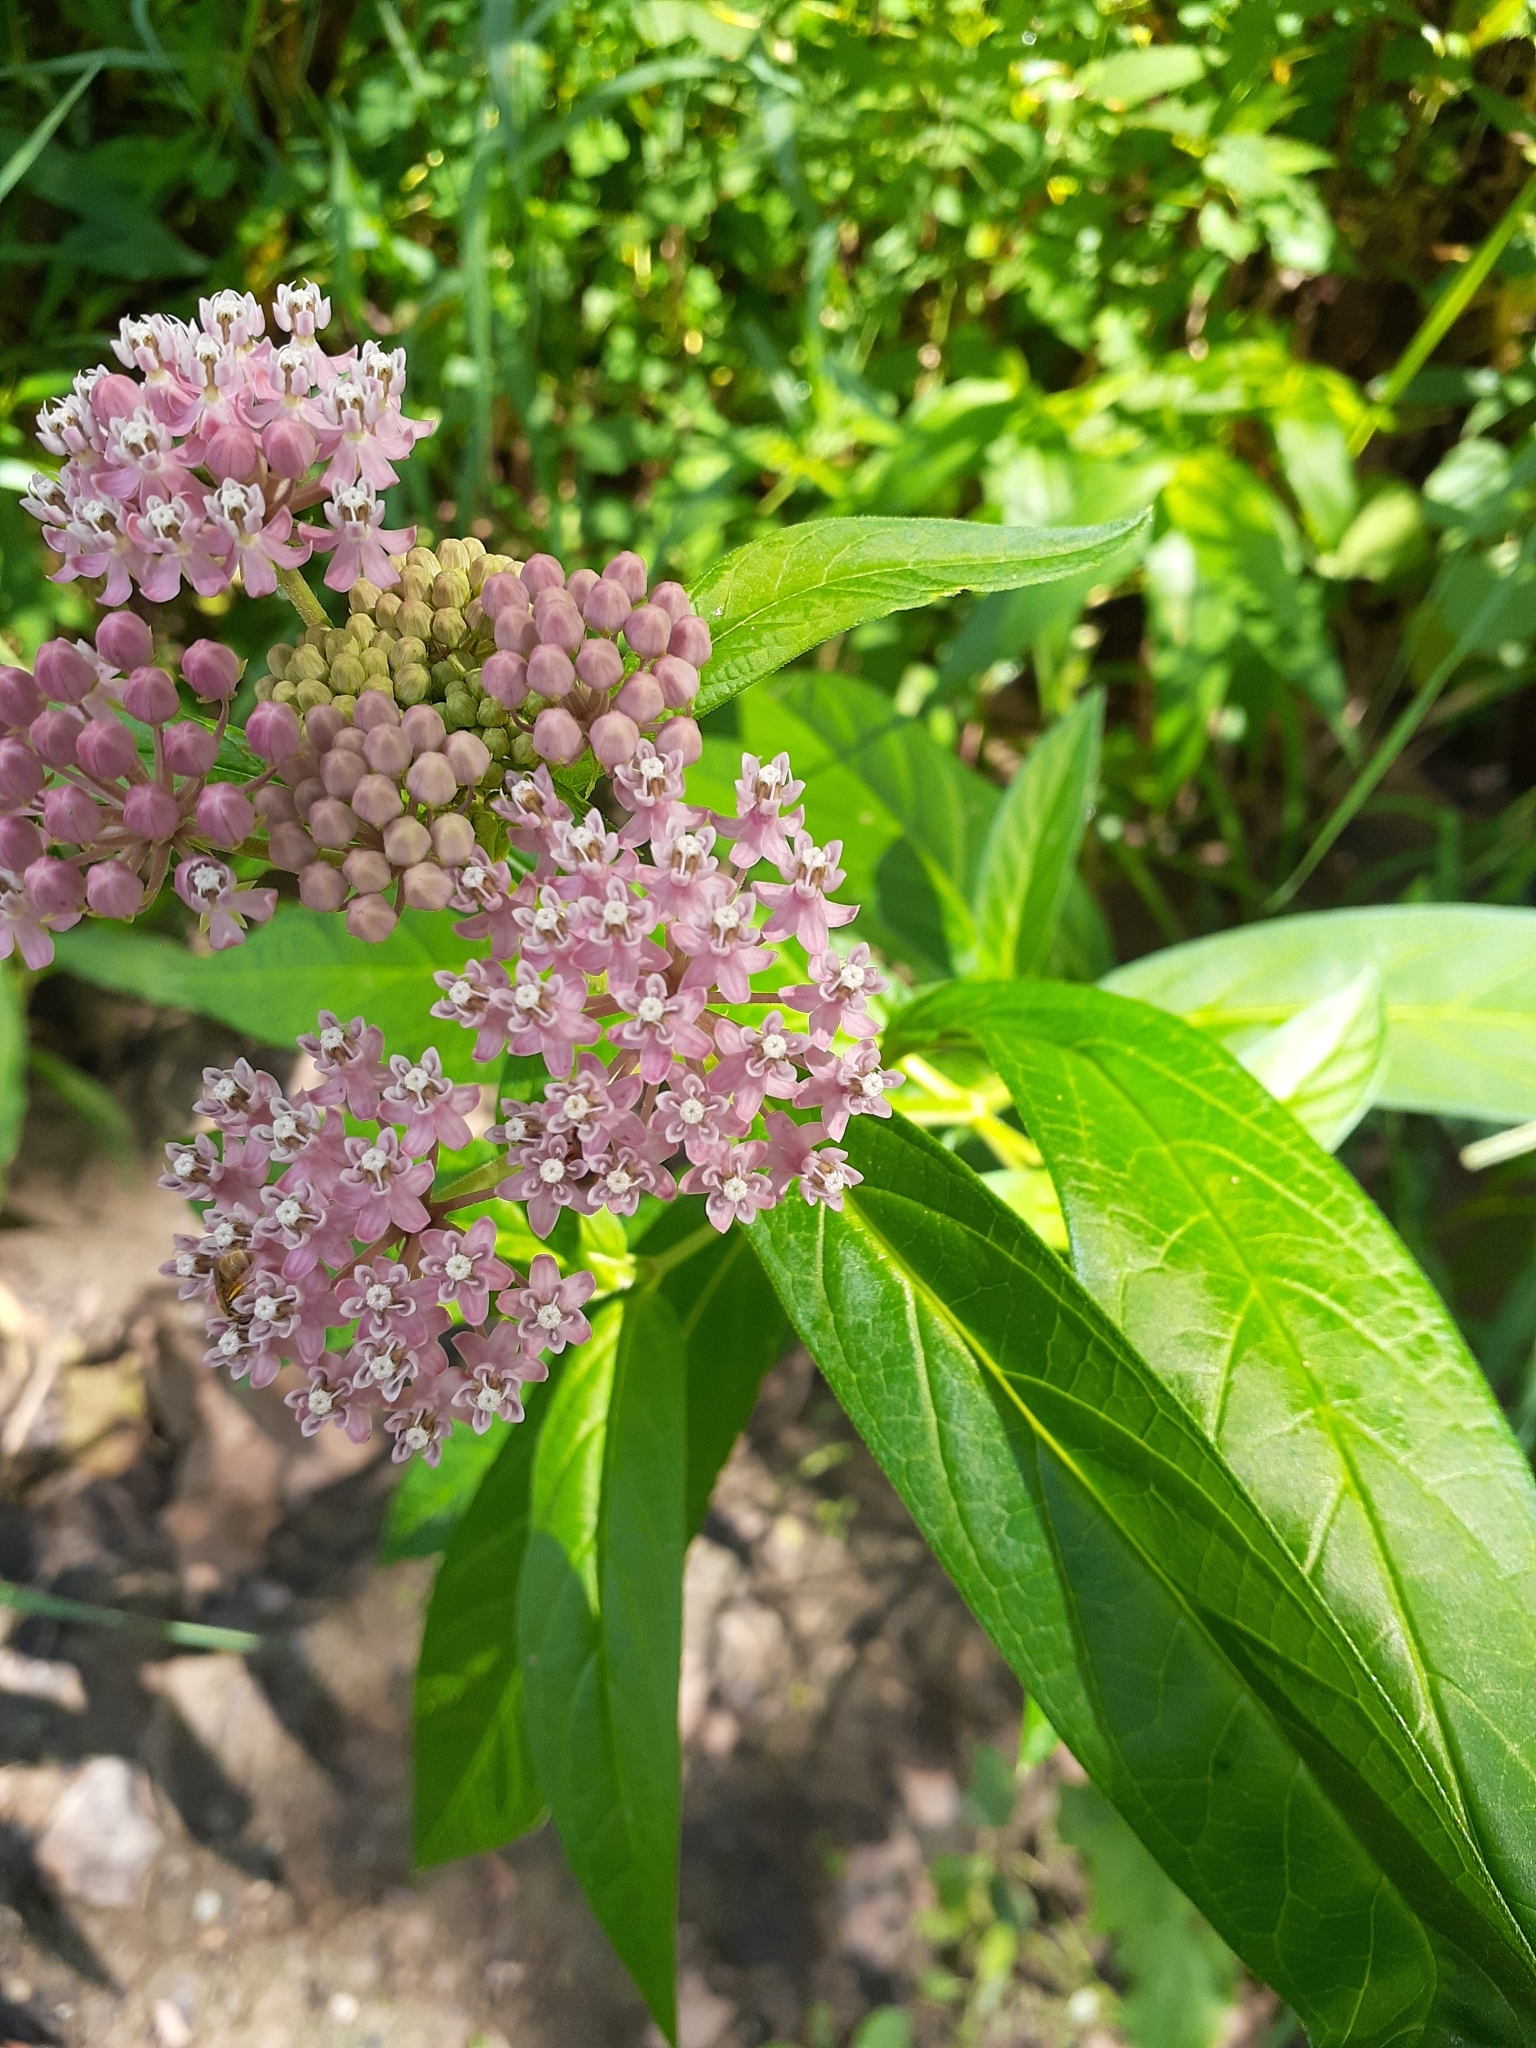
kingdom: Plantae
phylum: Tracheophyta
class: Magnoliopsida
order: Gentianales
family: Apocynaceae
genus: Asclepias
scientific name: Asclepias incarnata
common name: Swamp milkweed
